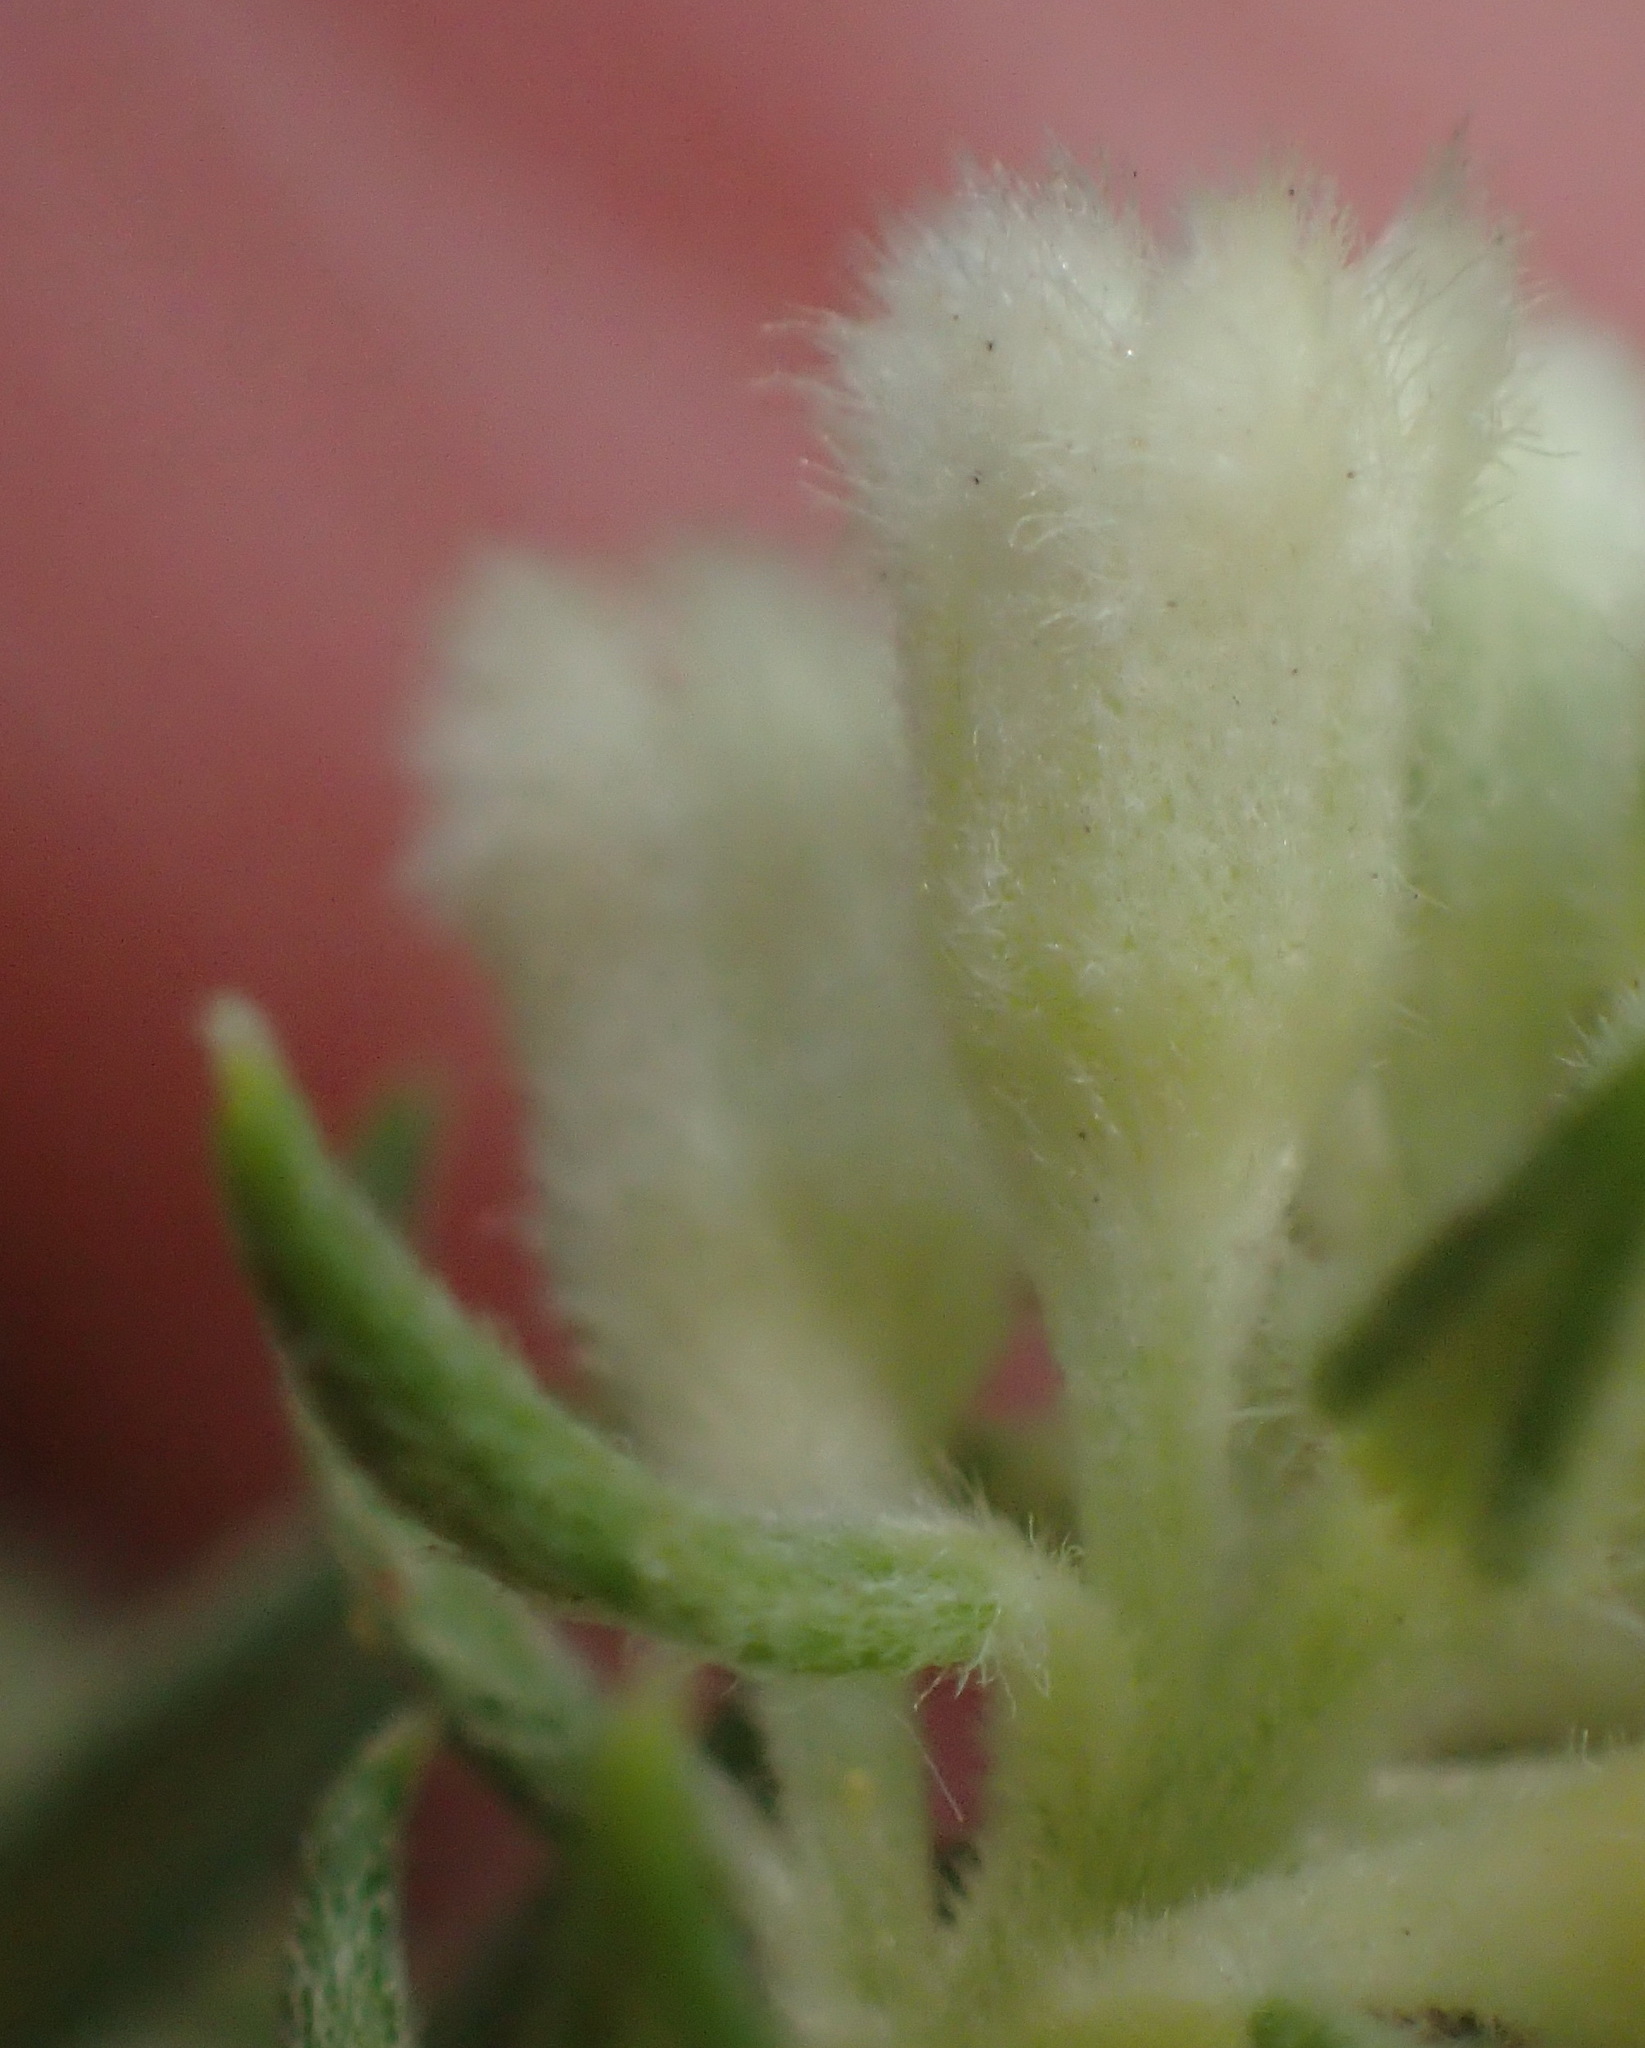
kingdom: Plantae
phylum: Tracheophyta
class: Magnoliopsida
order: Rosales
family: Rhamnaceae
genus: Phylica
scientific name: Phylica axillaris
